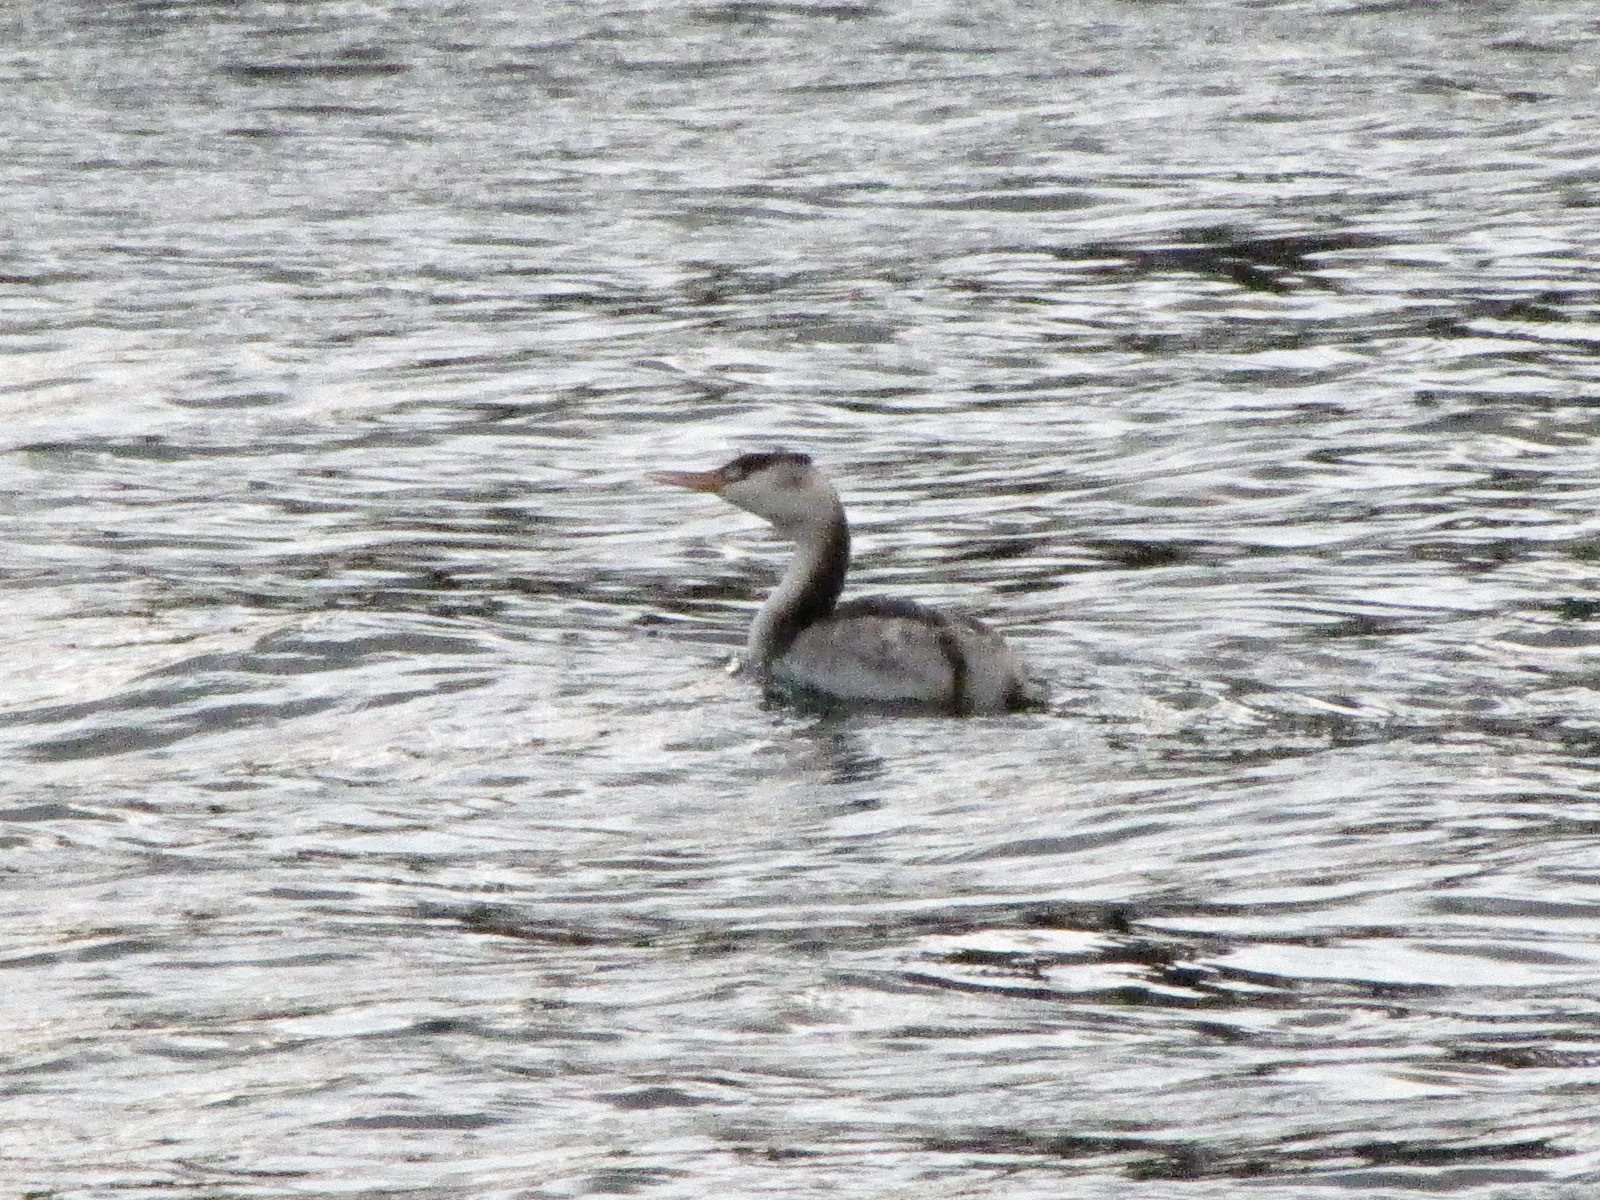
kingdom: Animalia
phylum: Chordata
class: Aves
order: Podicipediformes
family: Podicipedidae
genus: Podiceps
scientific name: Podiceps cristatus
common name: Great crested grebe
